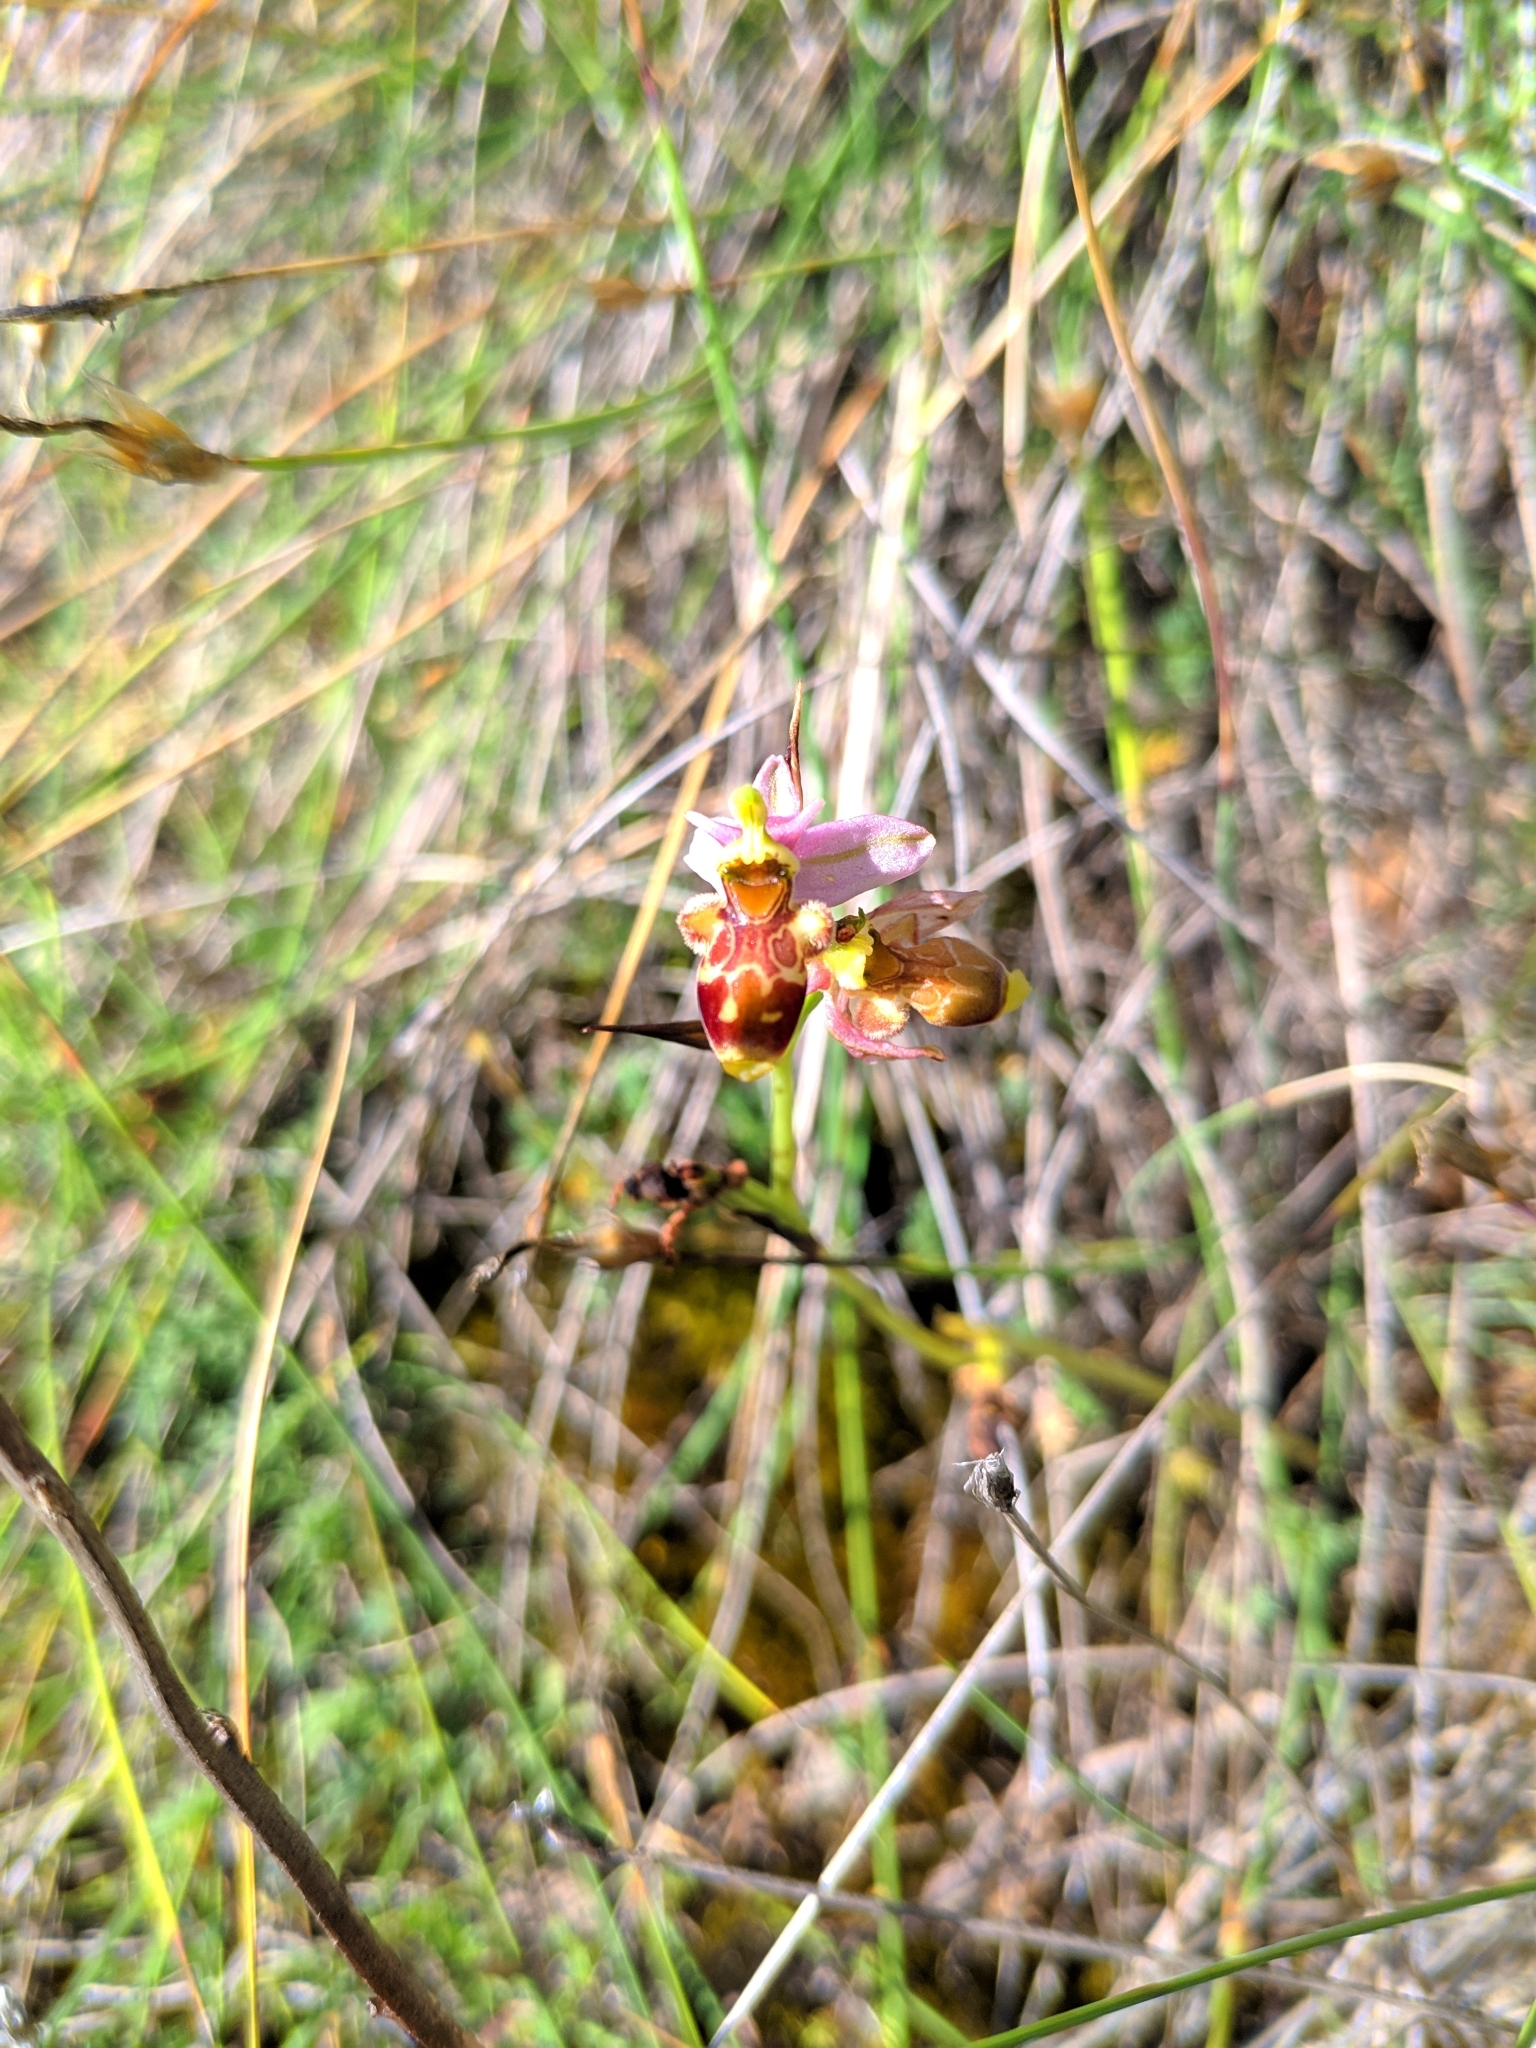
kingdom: Plantae
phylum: Tracheophyta
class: Liliopsida
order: Asparagales
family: Orchidaceae
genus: Ophrys
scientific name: Ophrys scolopax
